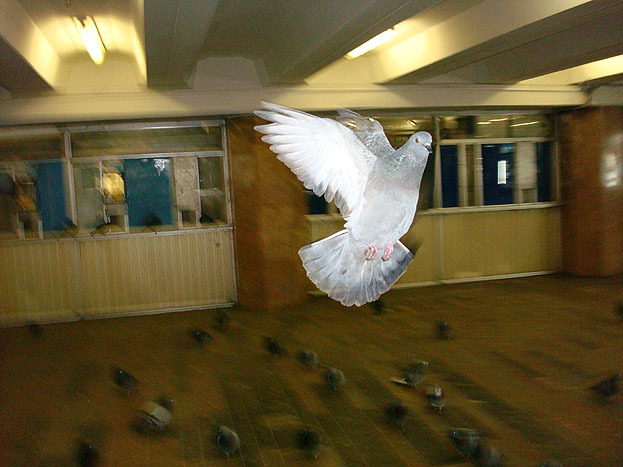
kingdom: Animalia
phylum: Chordata
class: Aves
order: Columbiformes
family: Columbidae
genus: Columba
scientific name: Columba livia
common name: Rock pigeon
